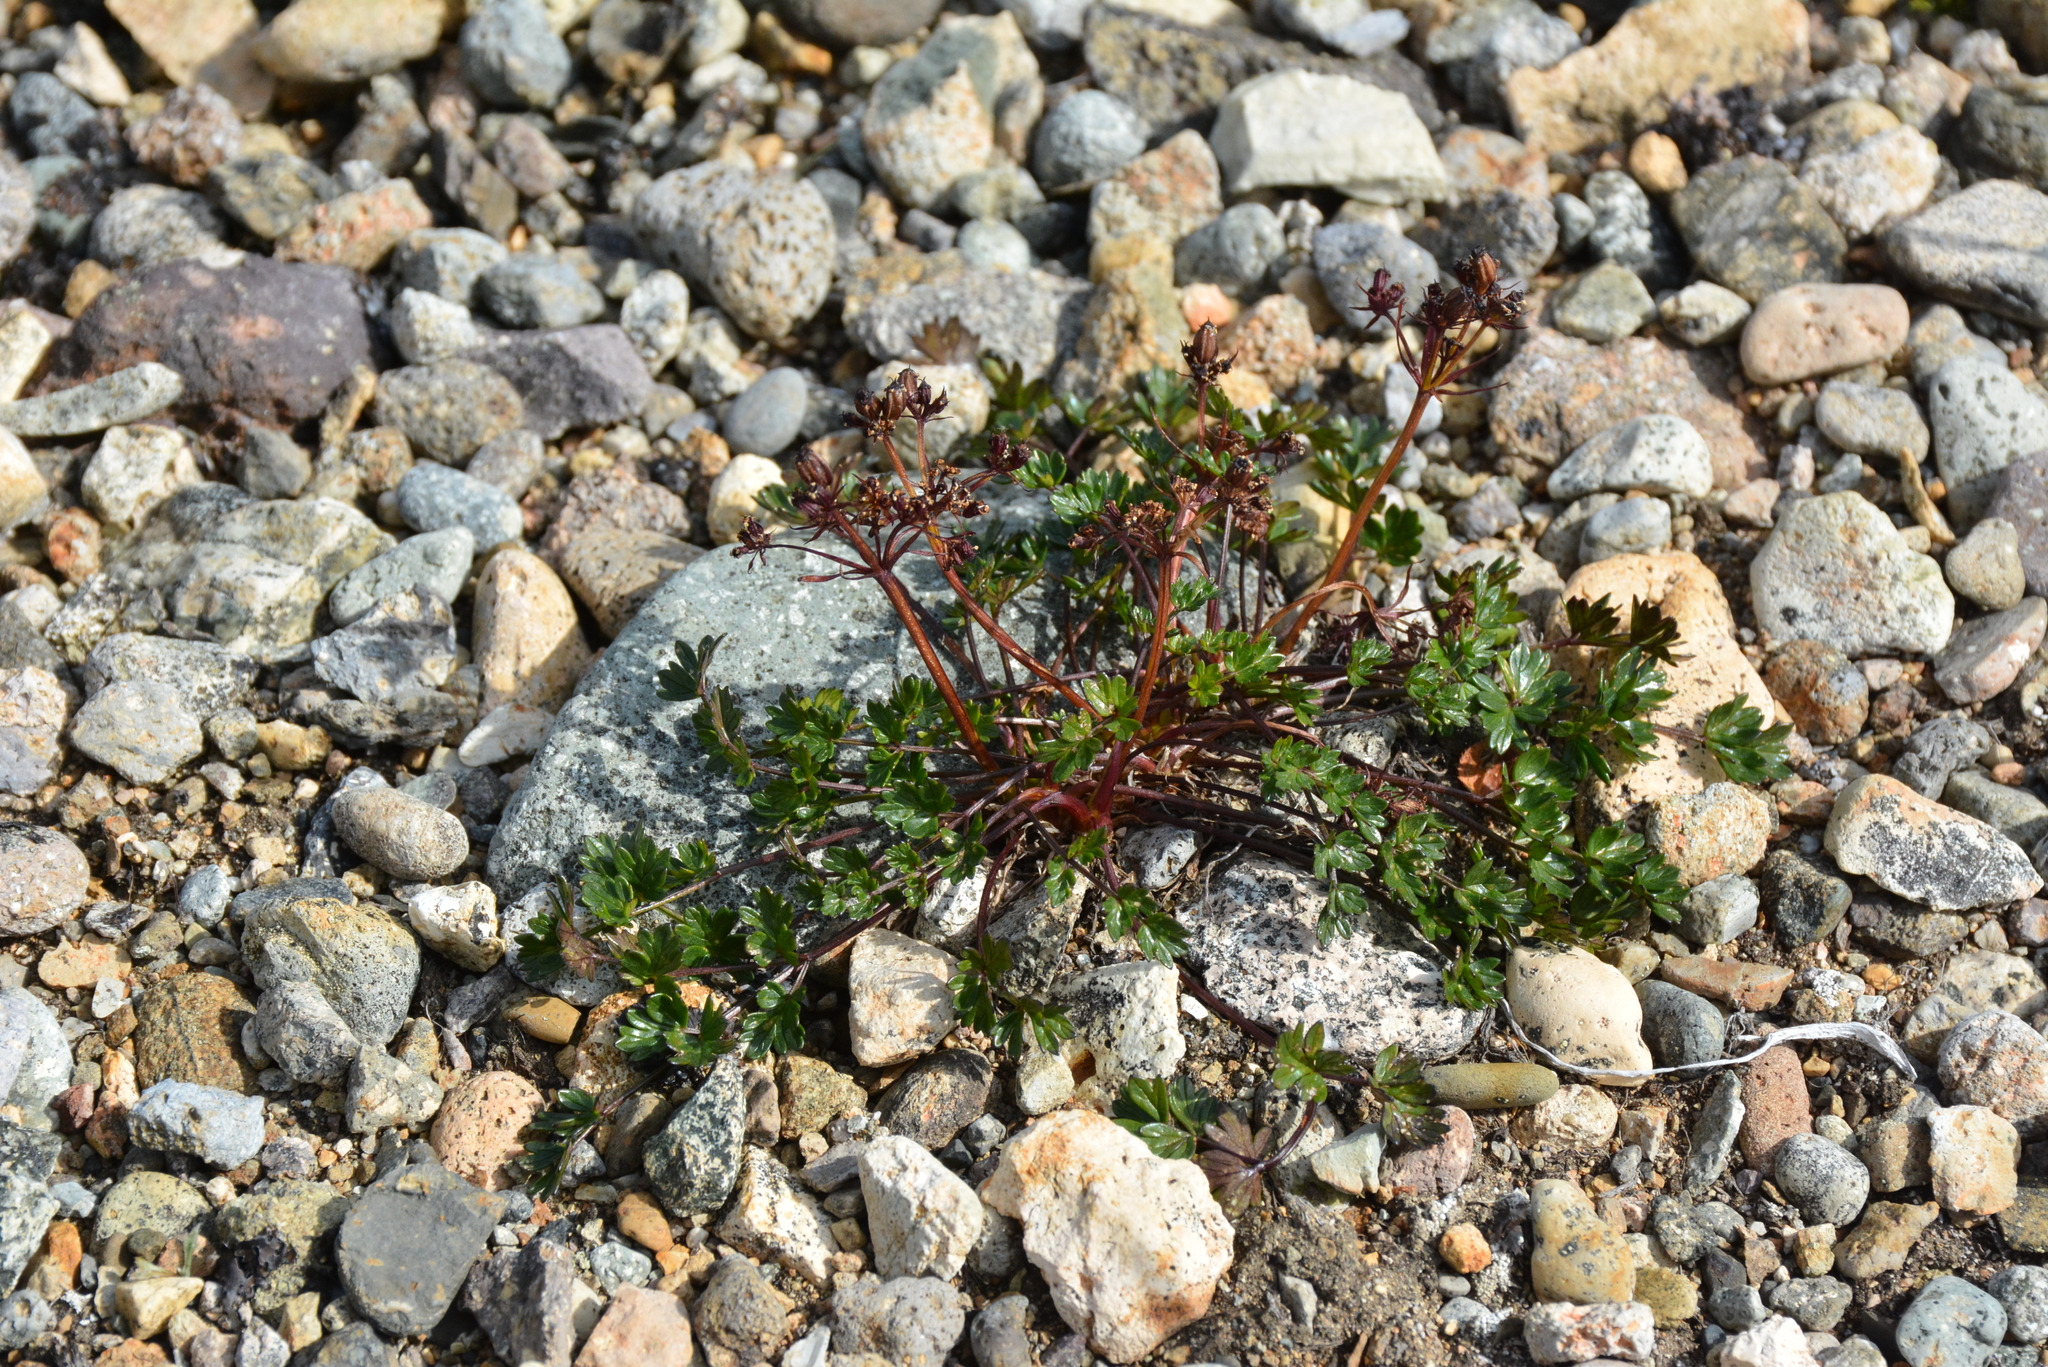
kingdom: Plantae
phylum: Tracheophyta
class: Magnoliopsida
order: Apiales
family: Apiaceae
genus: Orumbella
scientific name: Orumbella macounii
